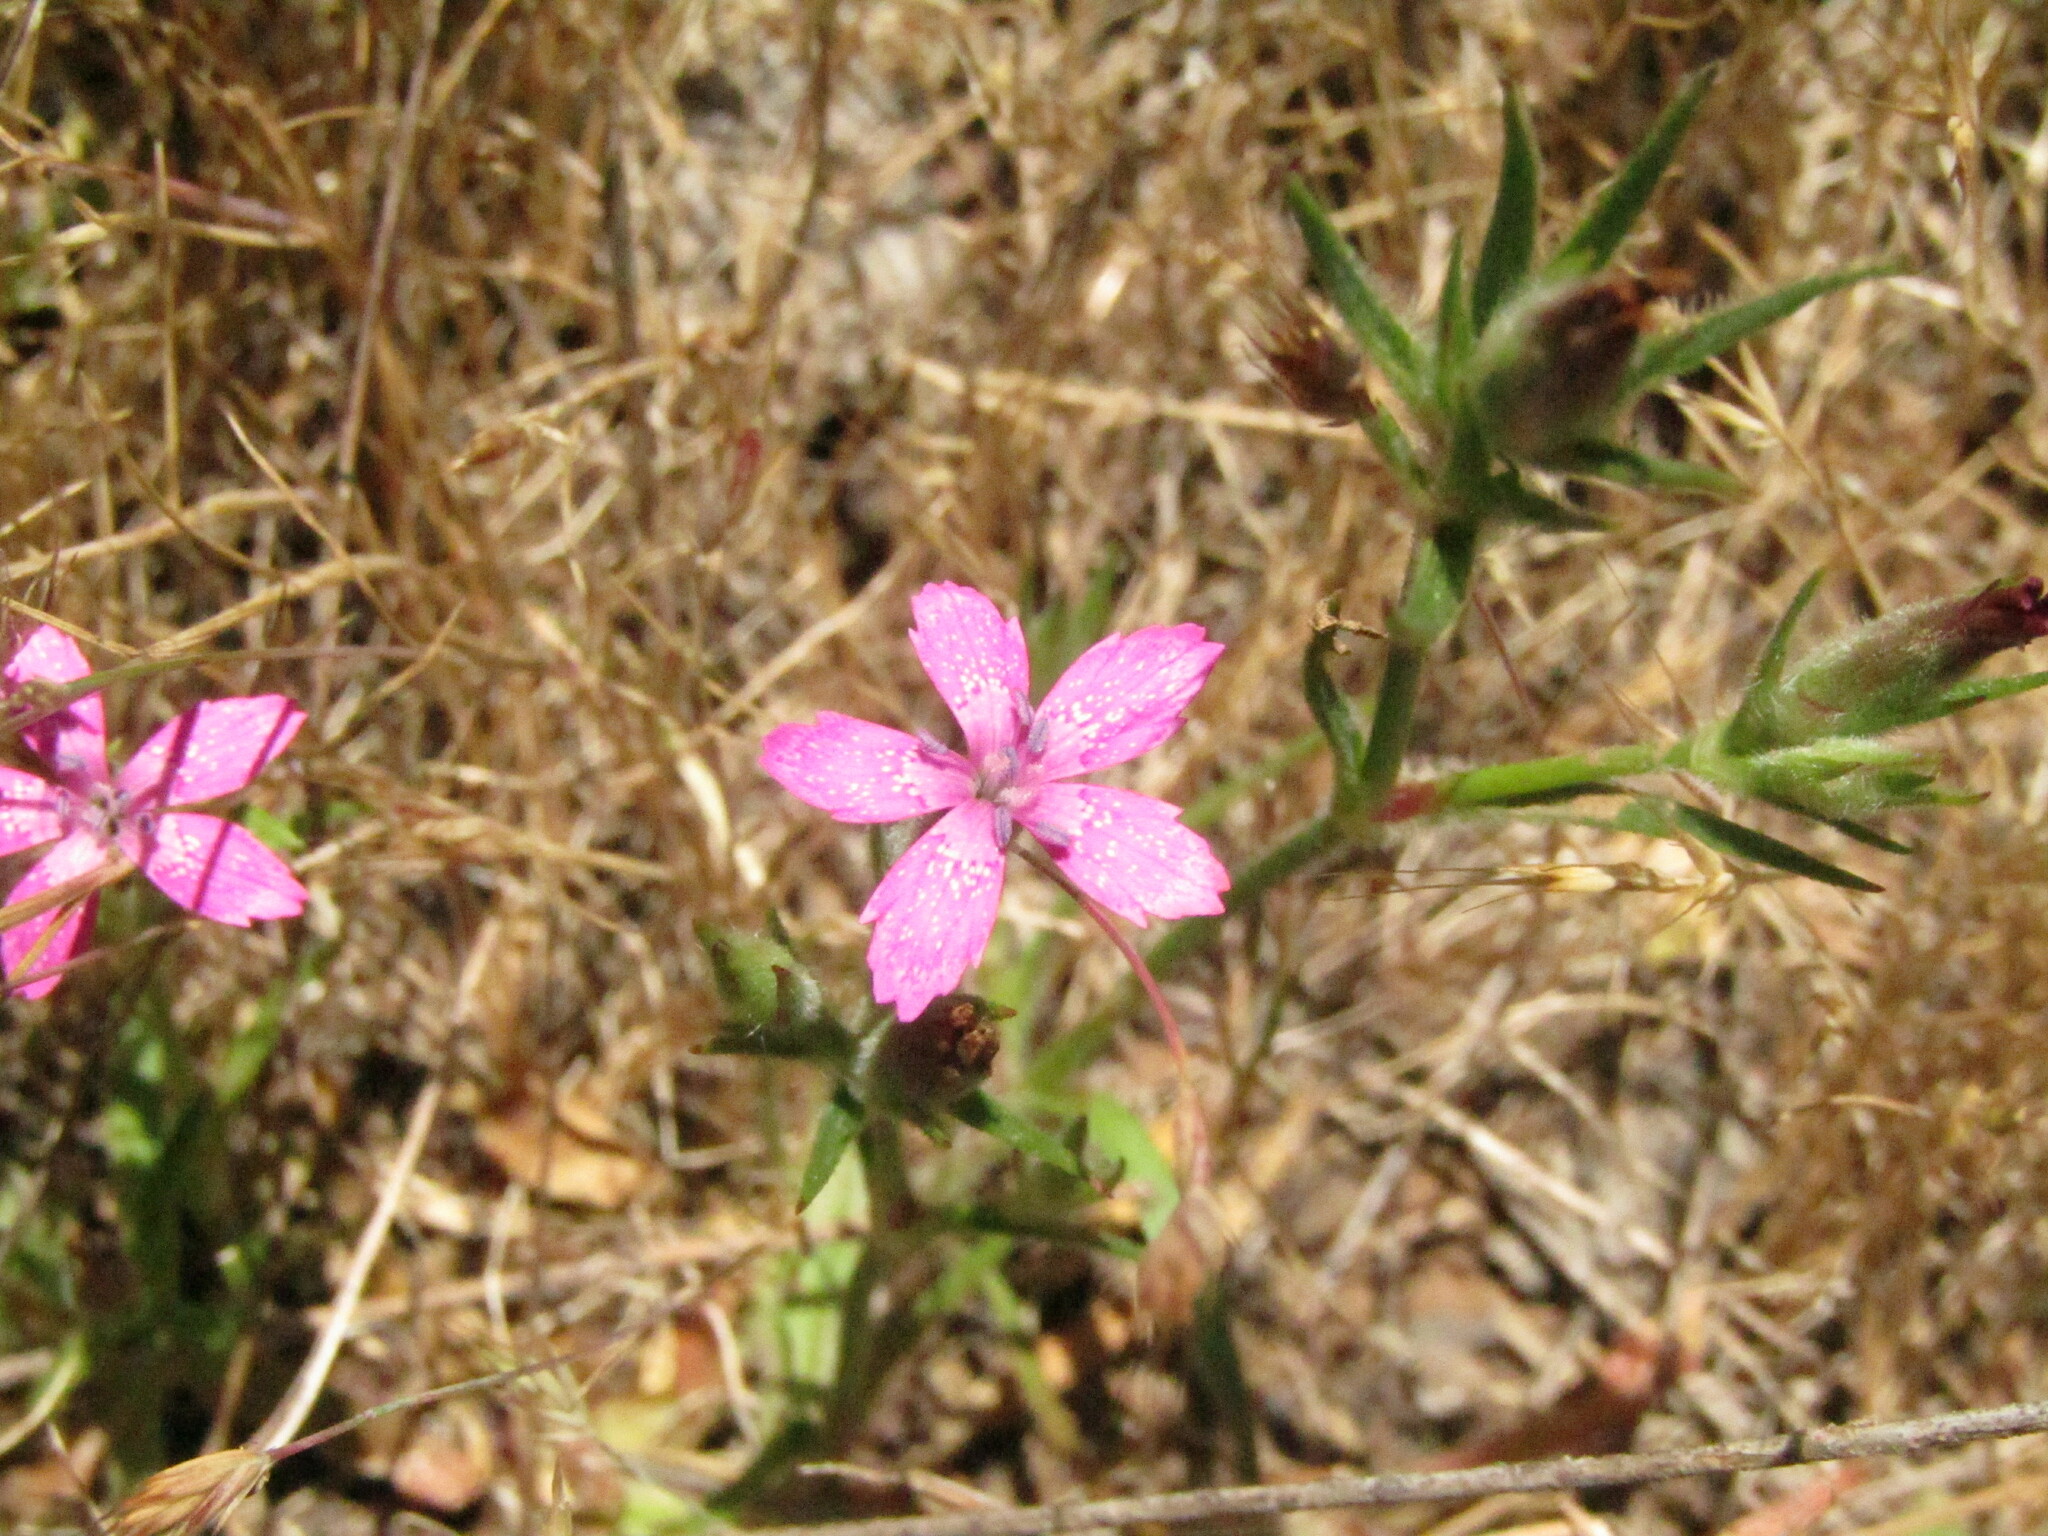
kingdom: Plantae
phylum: Tracheophyta
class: Magnoliopsida
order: Caryophyllales
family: Caryophyllaceae
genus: Dianthus
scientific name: Dianthus armeria
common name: Deptford pink
